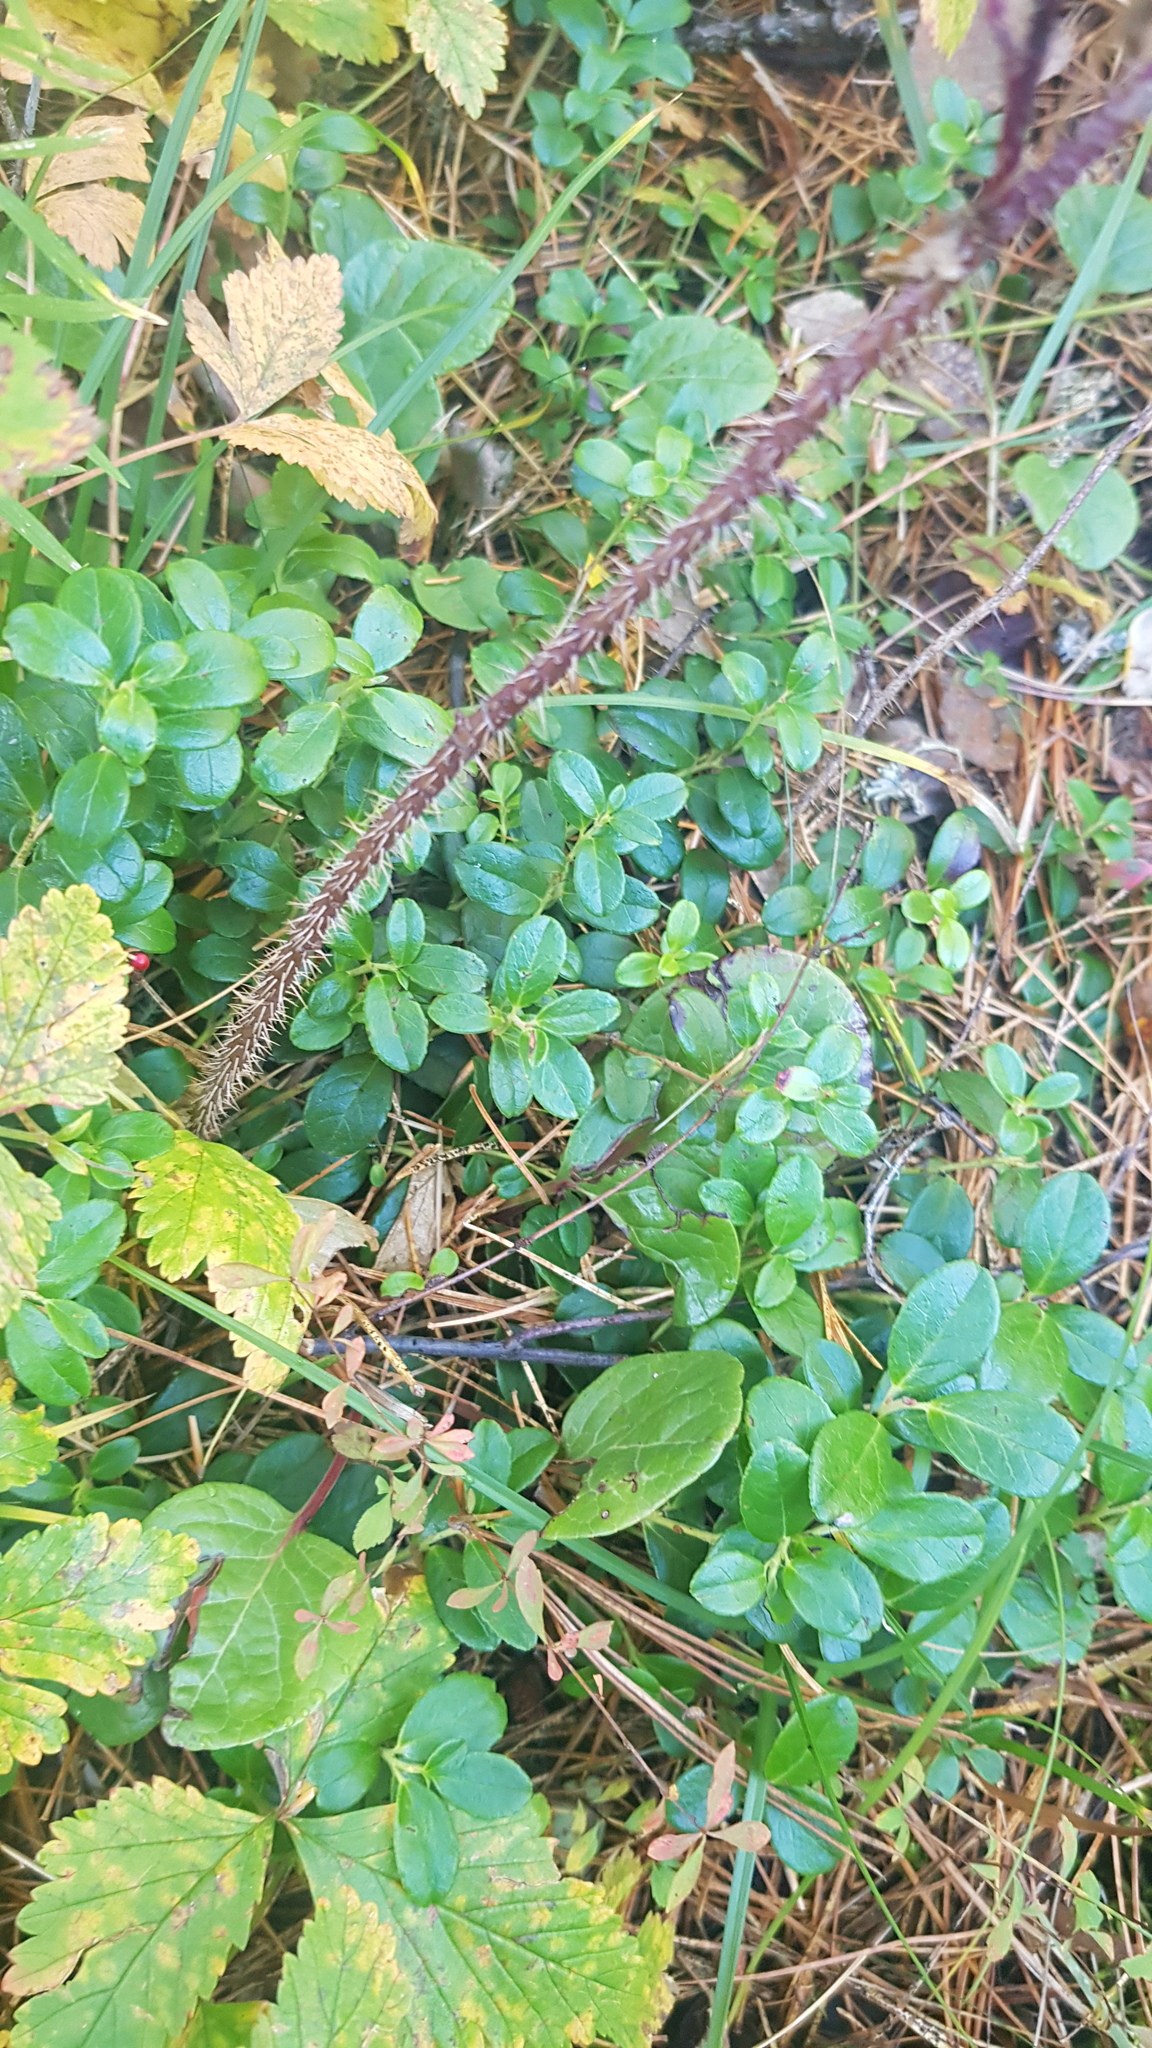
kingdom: Plantae
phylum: Tracheophyta
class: Magnoliopsida
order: Ericales
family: Ericaceae
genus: Vaccinium
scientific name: Vaccinium vitis-idaea
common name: Cowberry
